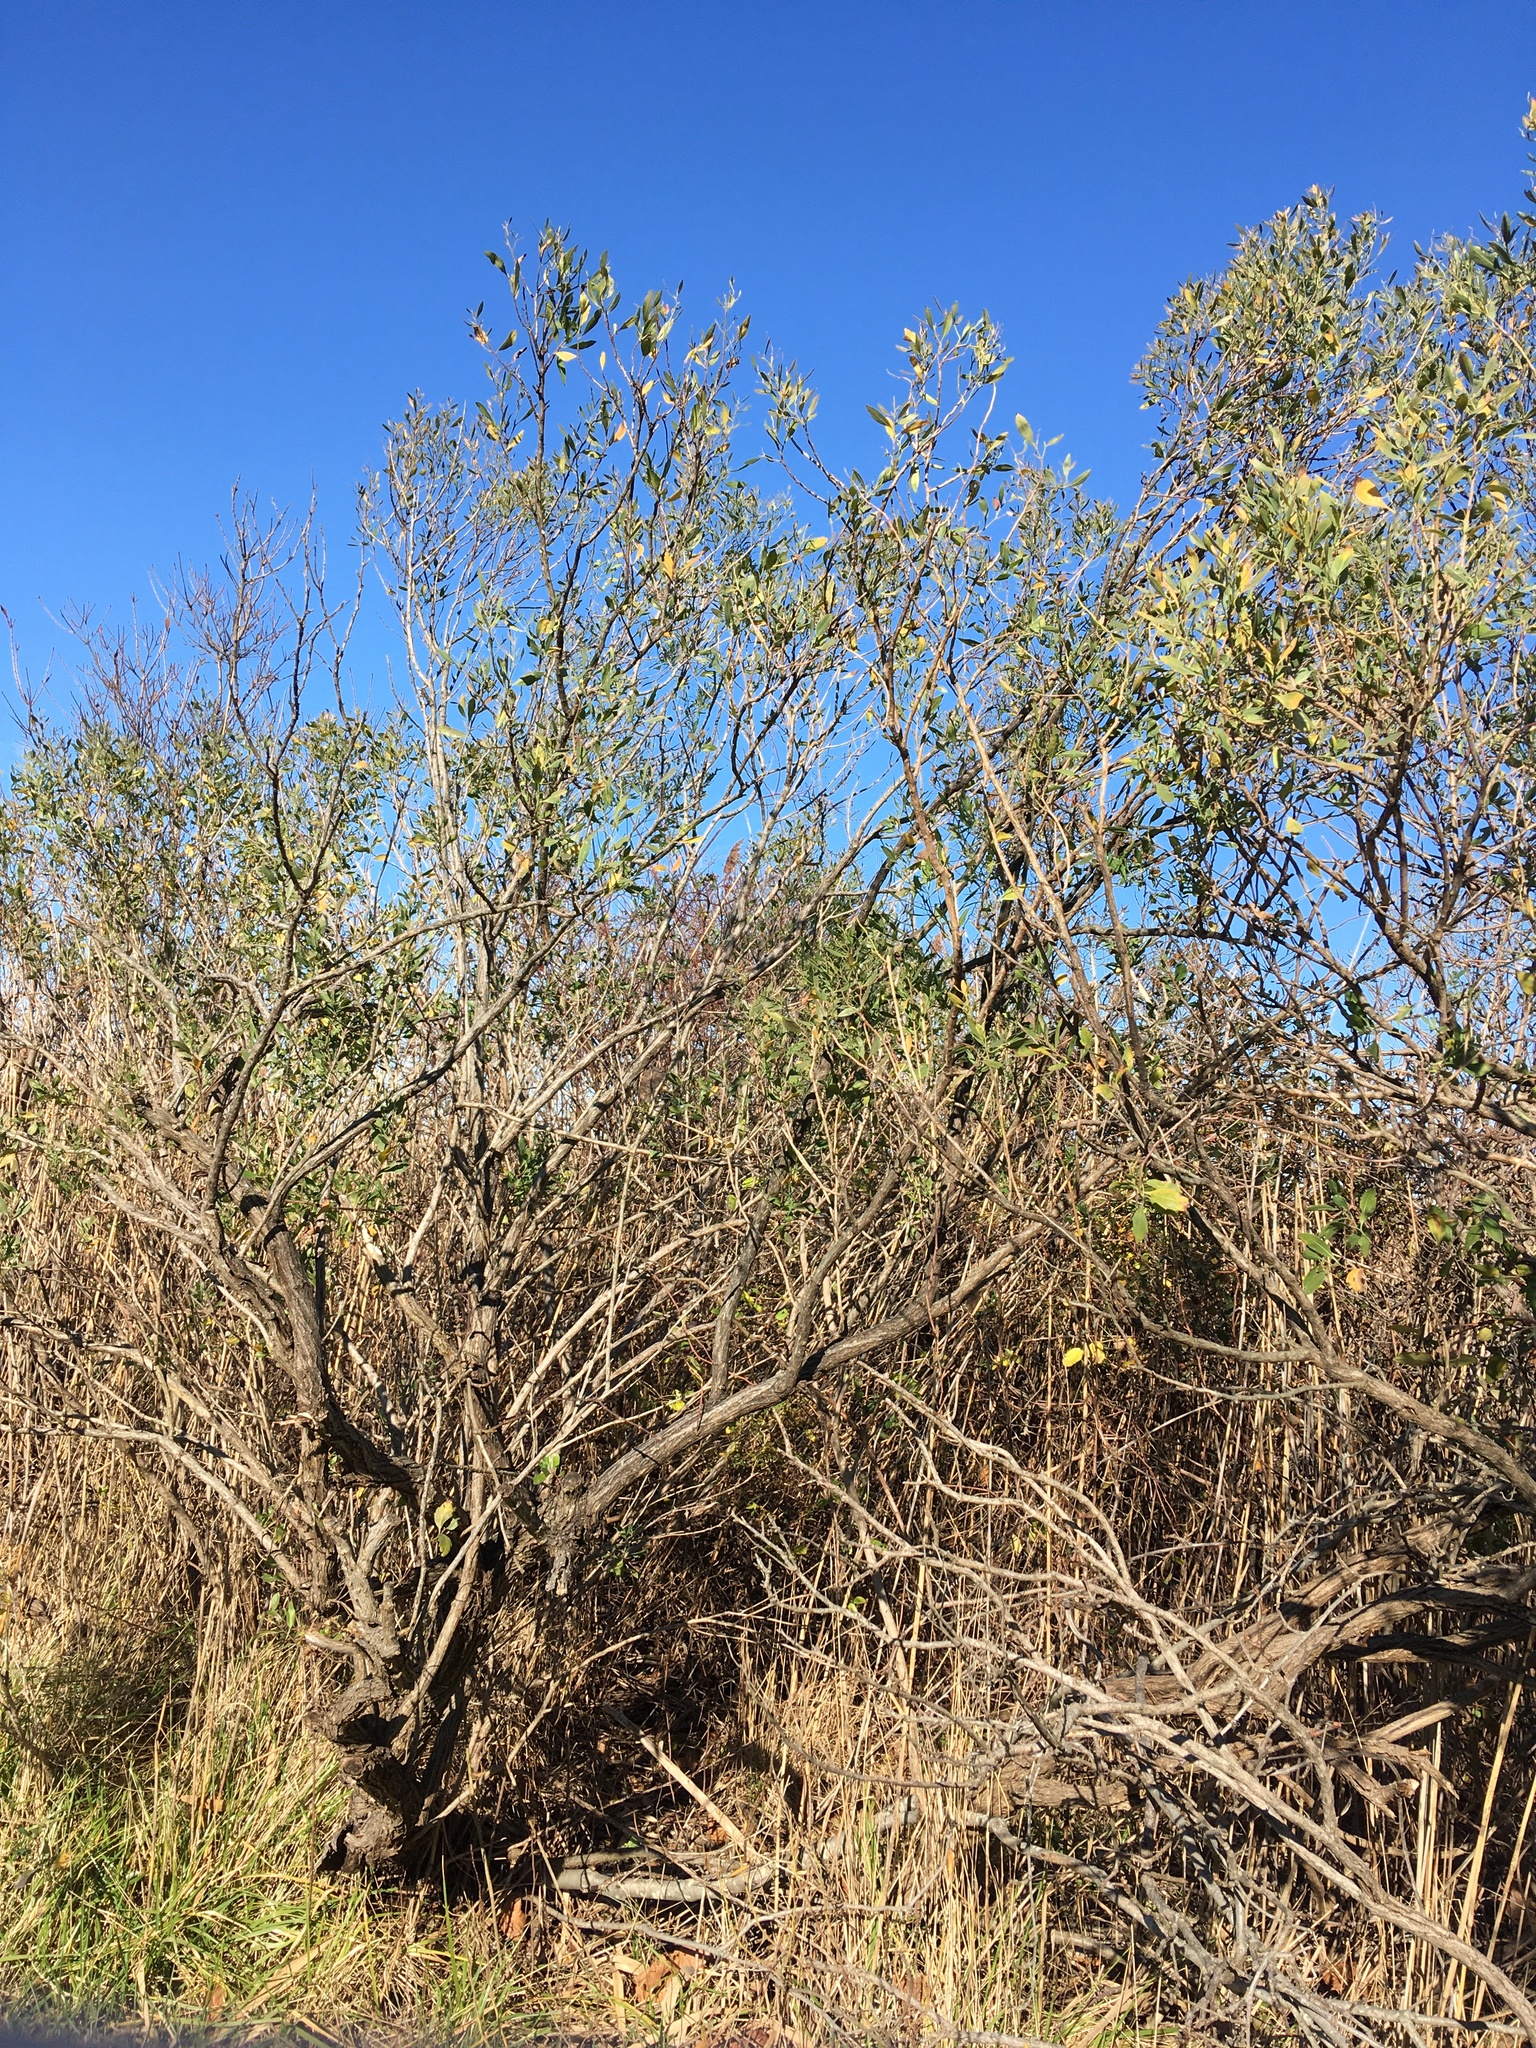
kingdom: Plantae
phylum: Tracheophyta
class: Magnoliopsida
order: Asterales
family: Asteraceae
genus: Baccharis
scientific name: Baccharis halimifolia
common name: Eastern baccharis
